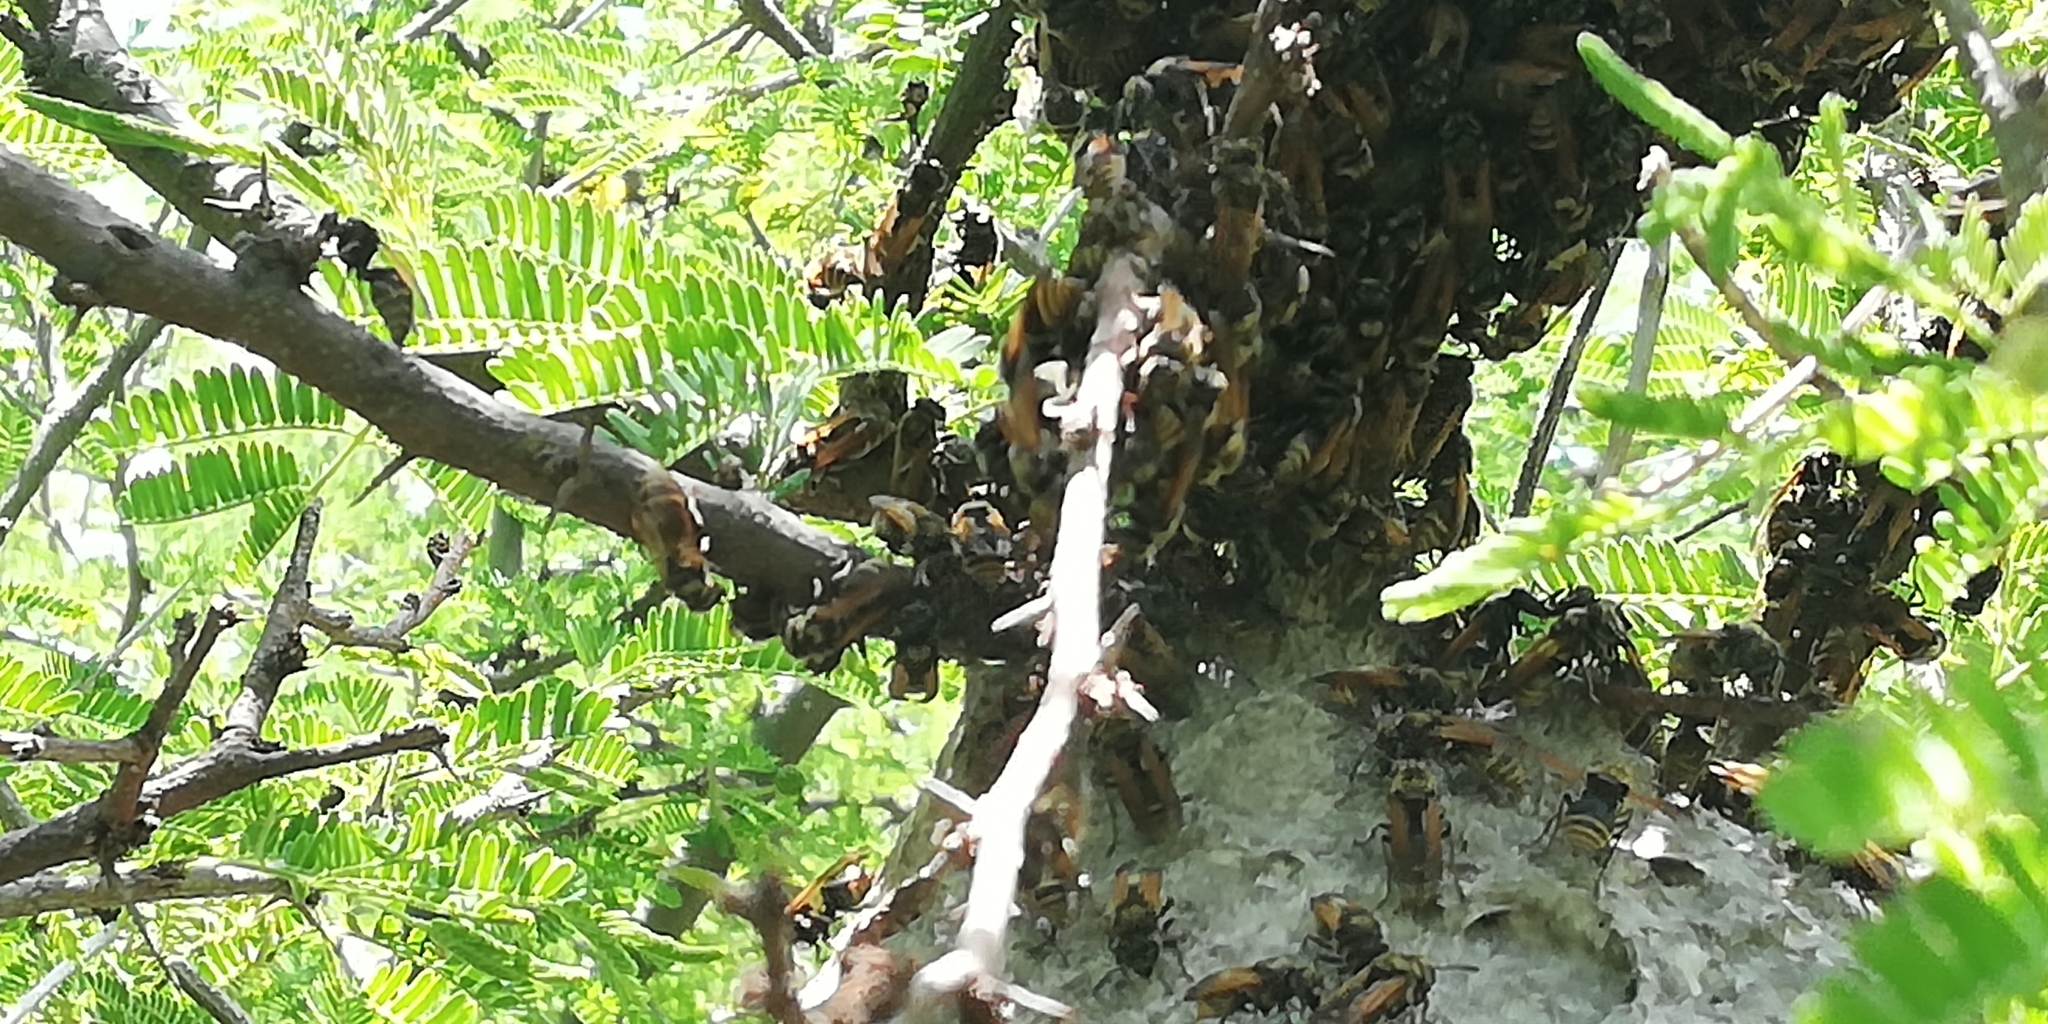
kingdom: Animalia
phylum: Arthropoda
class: Insecta
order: Hymenoptera
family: Vespidae
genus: Brachygastra
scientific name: Brachygastra mellifica
